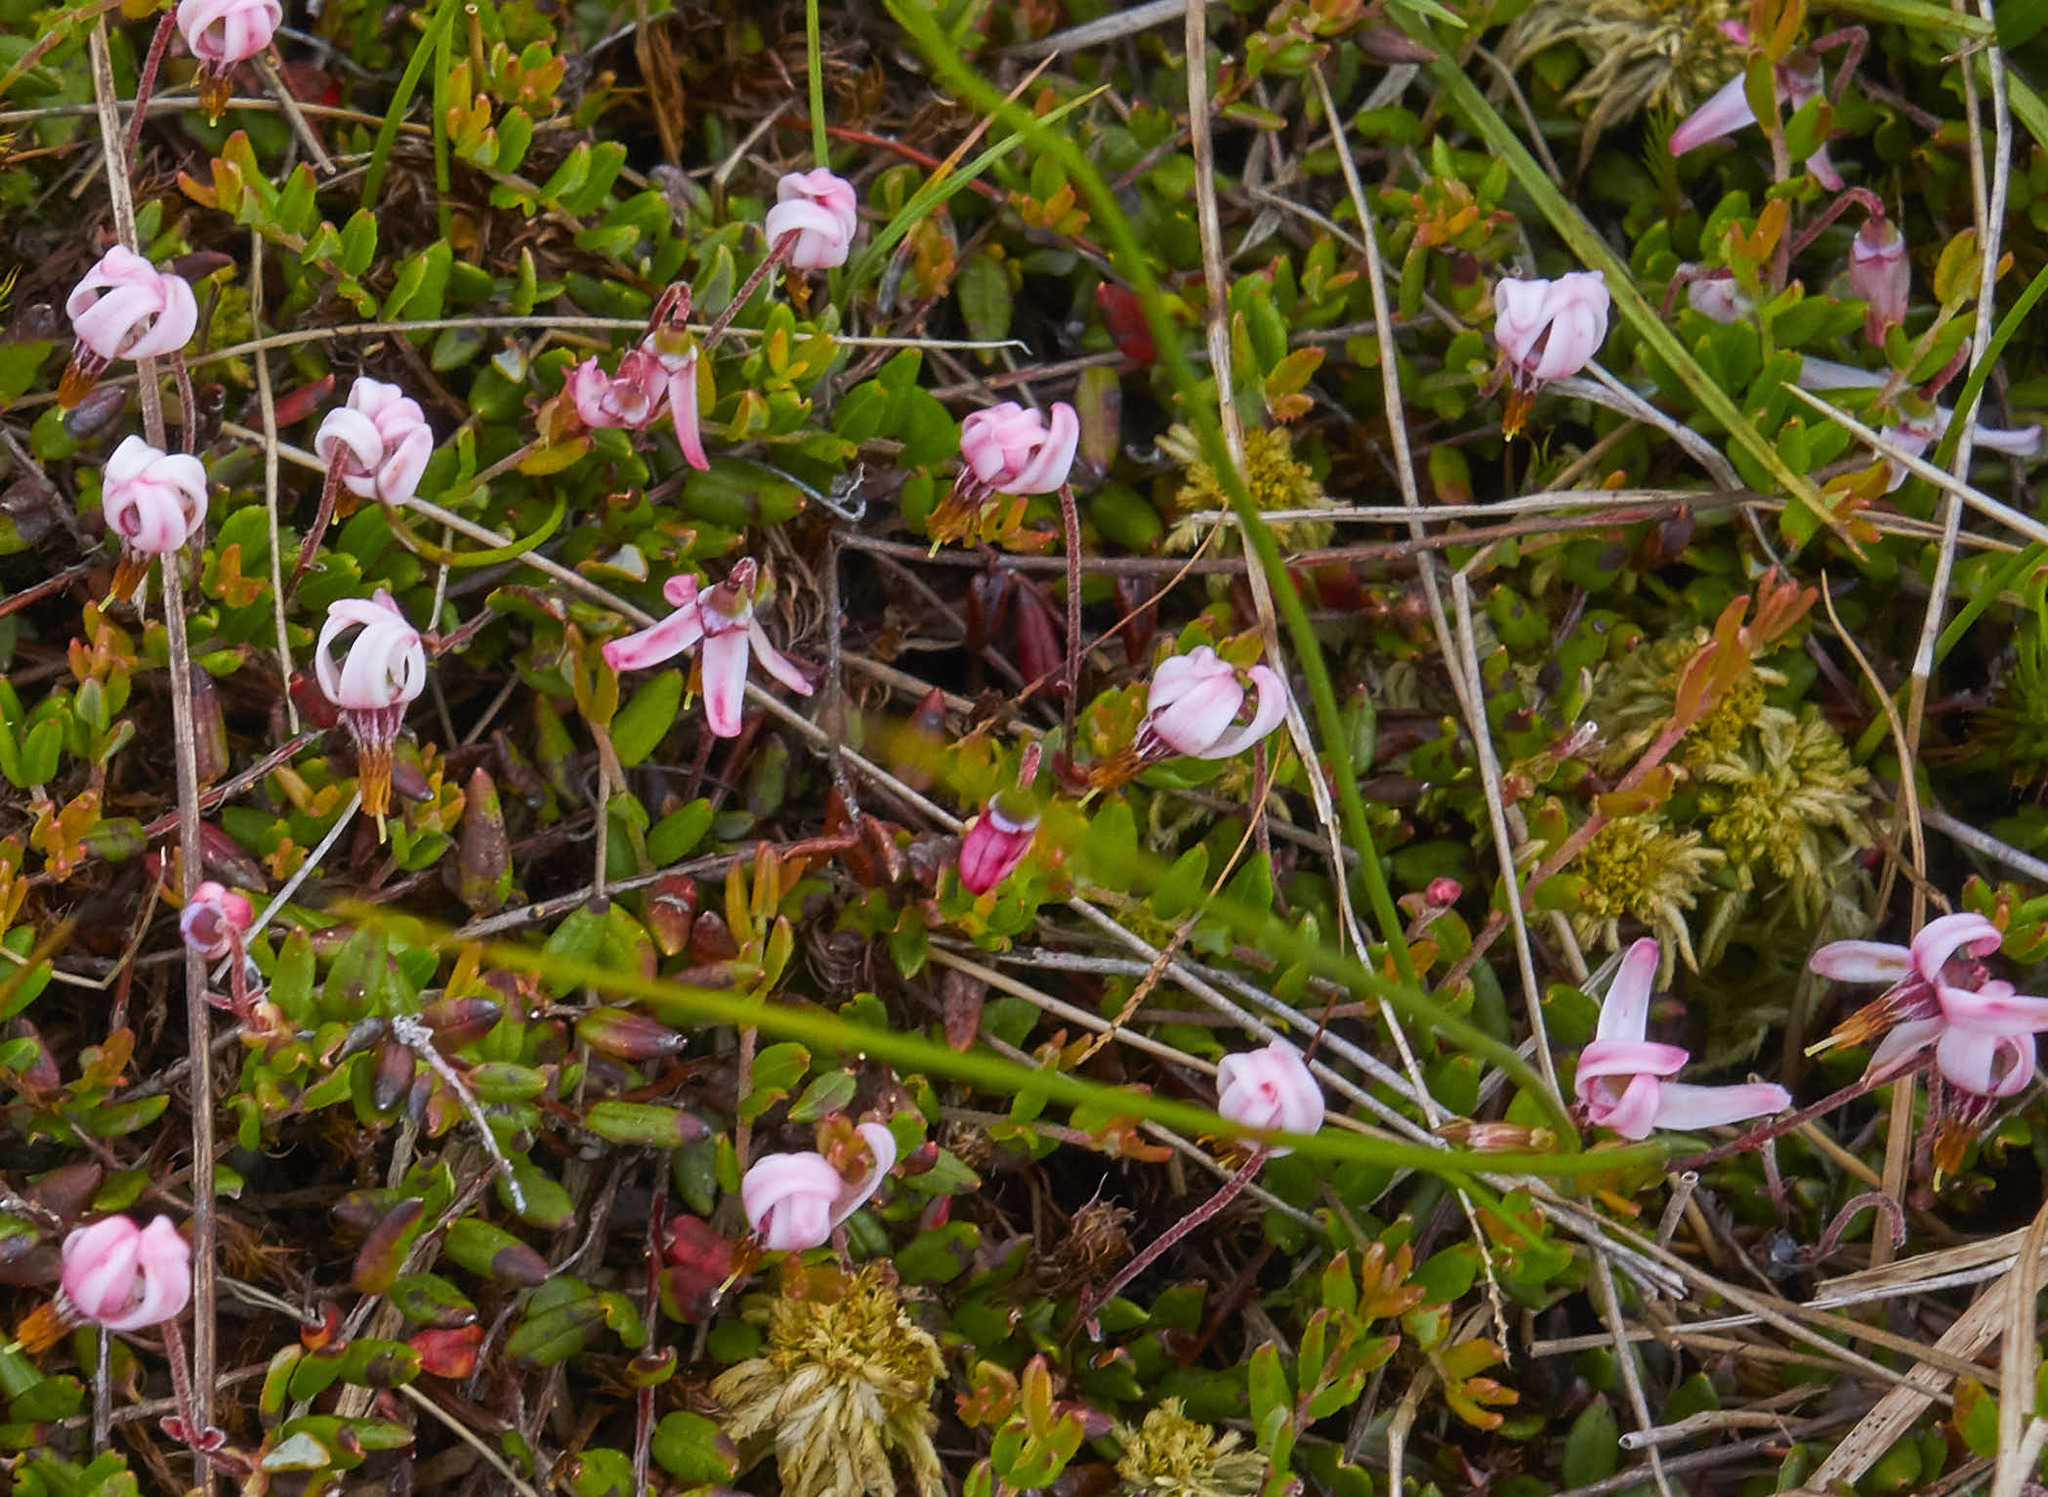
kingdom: Plantae
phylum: Tracheophyta
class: Magnoliopsida
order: Ericales
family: Ericaceae
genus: Vaccinium
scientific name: Vaccinium oxycoccos
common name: Cranberry
